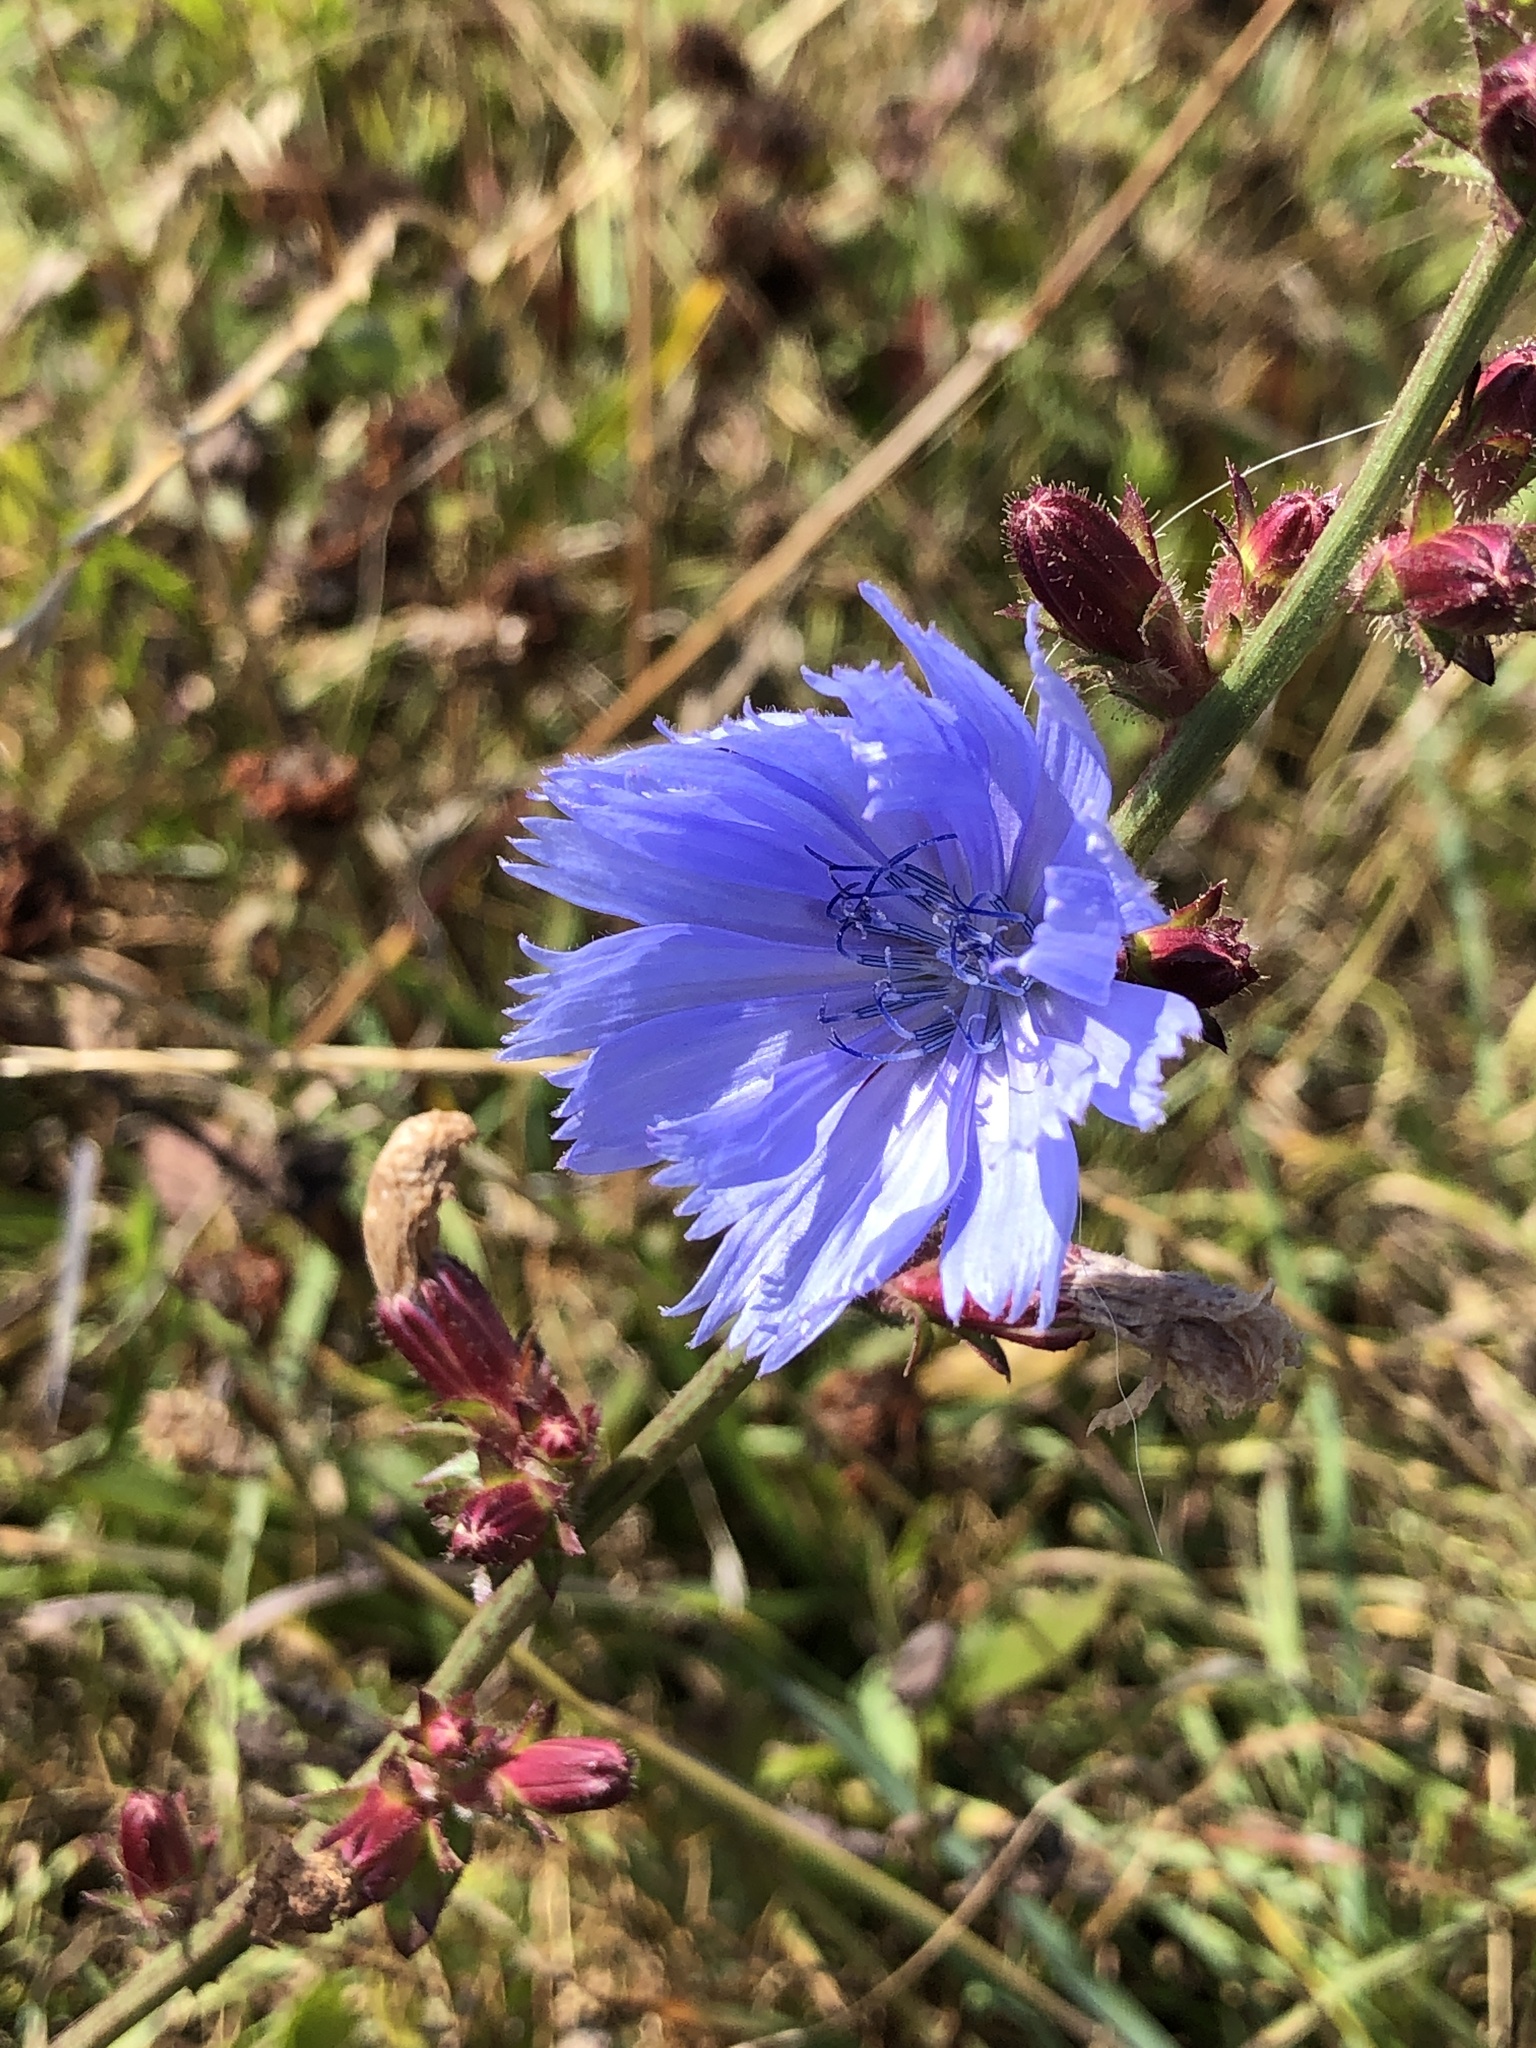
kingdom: Plantae
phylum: Tracheophyta
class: Magnoliopsida
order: Asterales
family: Asteraceae
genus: Cichorium
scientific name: Cichorium intybus
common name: Chicory
